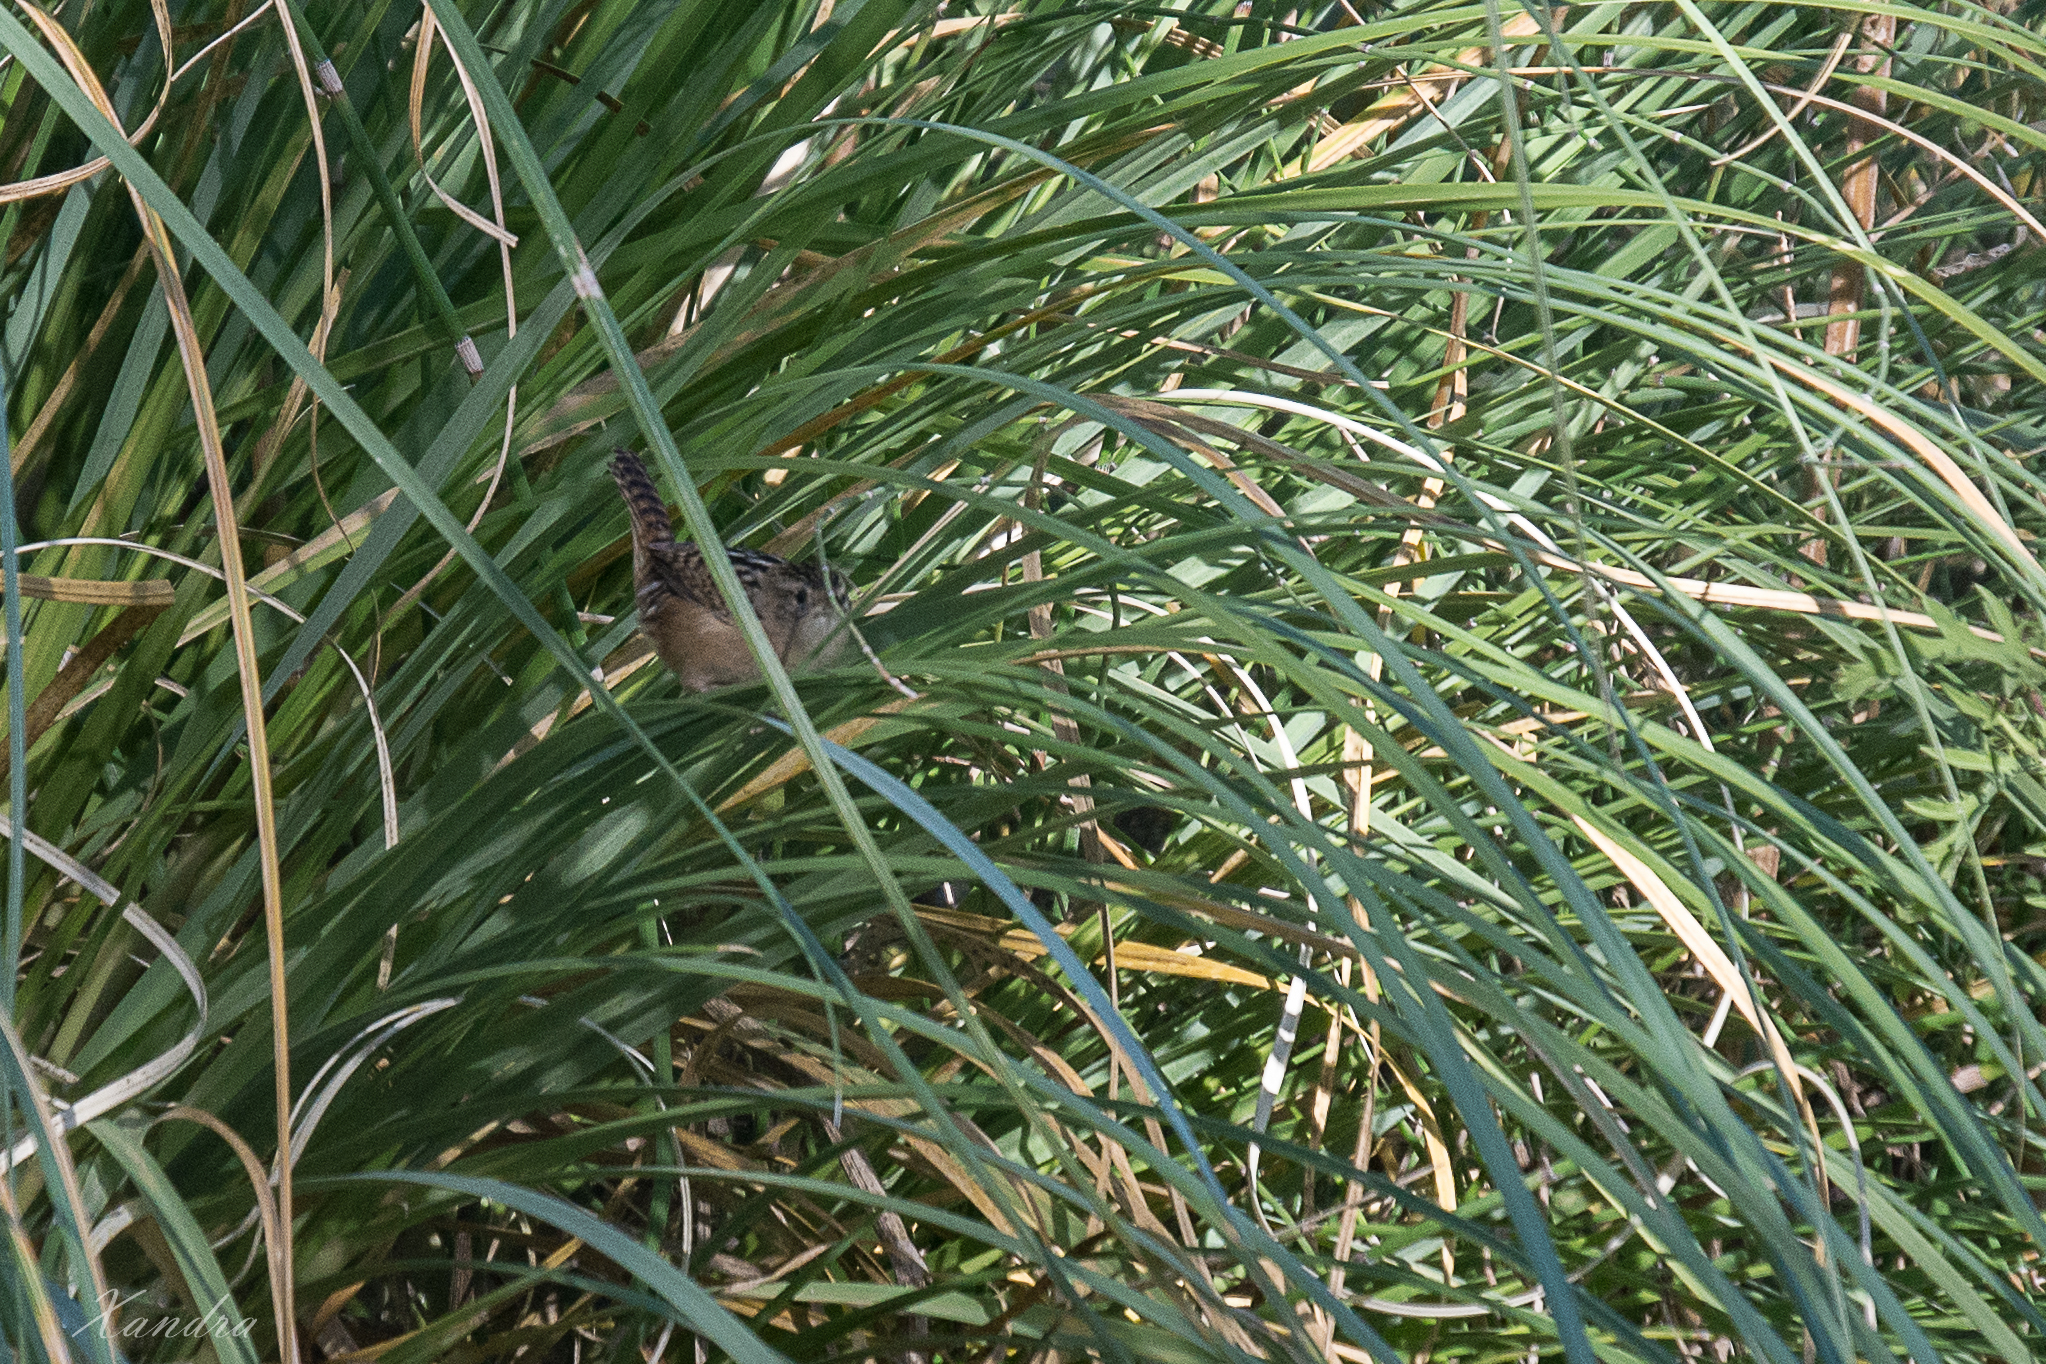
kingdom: Animalia
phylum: Chordata
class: Aves
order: Passeriformes
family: Troglodytidae
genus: Cistothorus
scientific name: Cistothorus platensis
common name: Sedge wren
